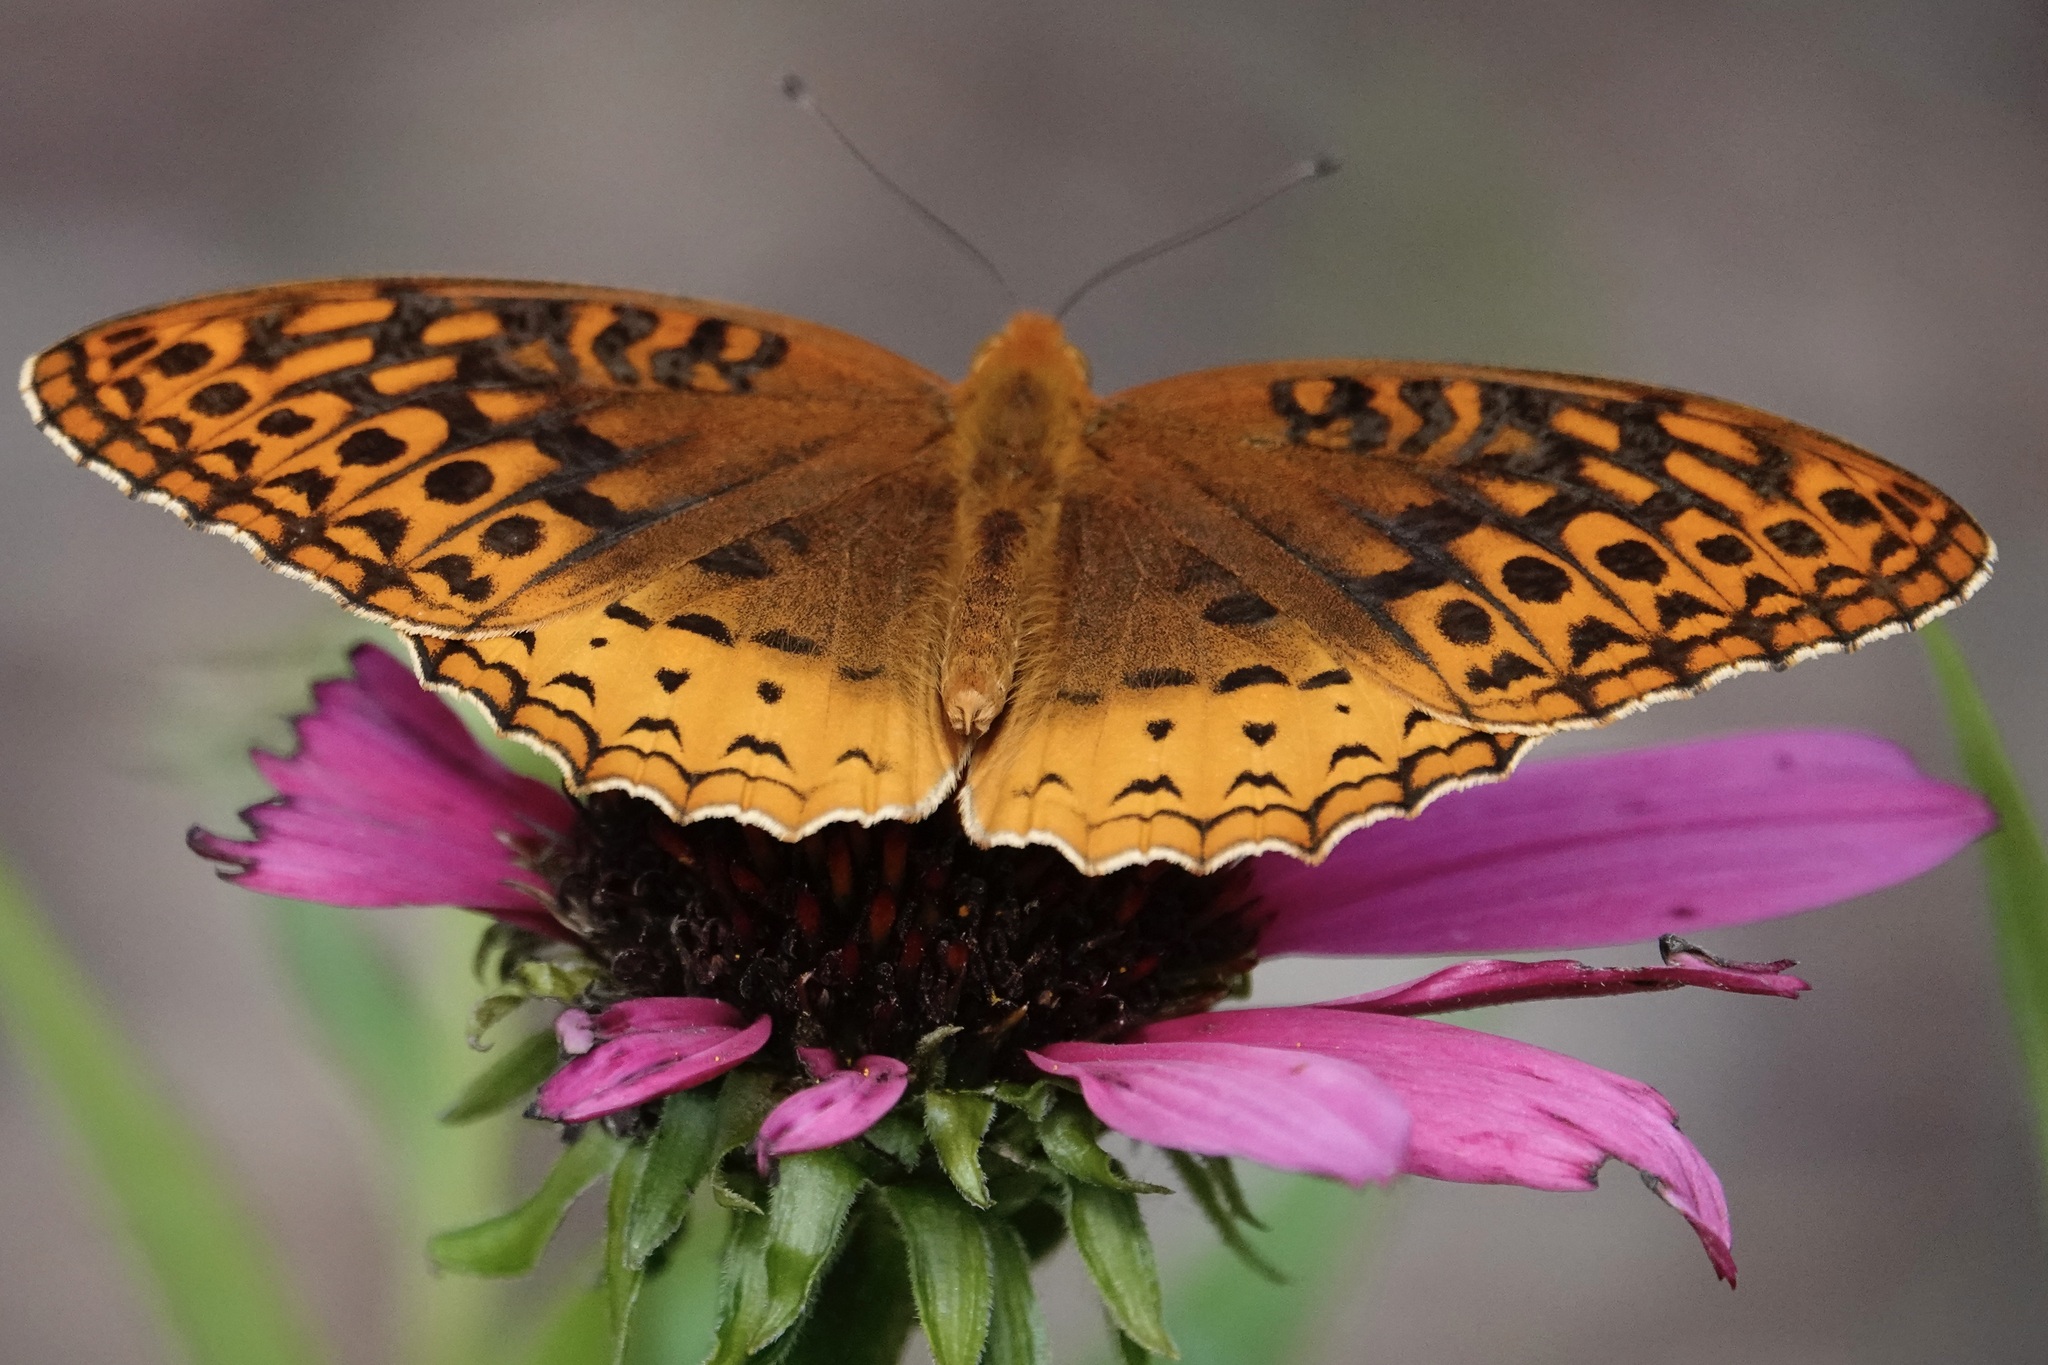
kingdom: Animalia
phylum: Arthropoda
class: Insecta
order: Lepidoptera
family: Nymphalidae
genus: Speyeria
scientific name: Speyeria cybele
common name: Great spangled fritillary
